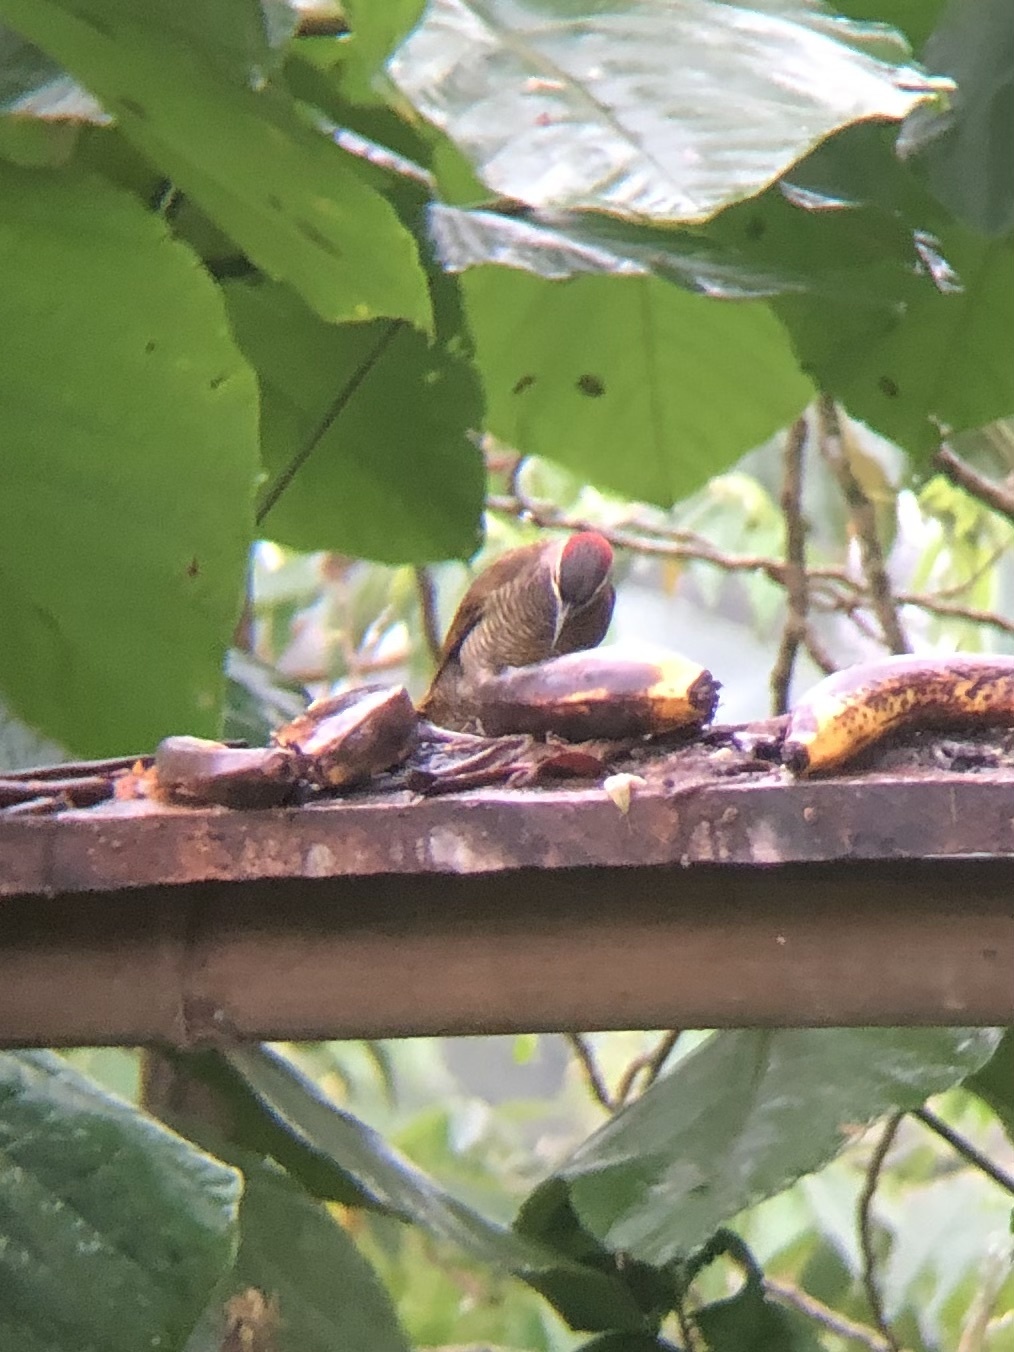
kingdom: Animalia
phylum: Chordata
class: Aves
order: Piciformes
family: Picidae
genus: Colaptes
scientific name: Colaptes rubiginosus
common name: Golden-olive woodpecker
